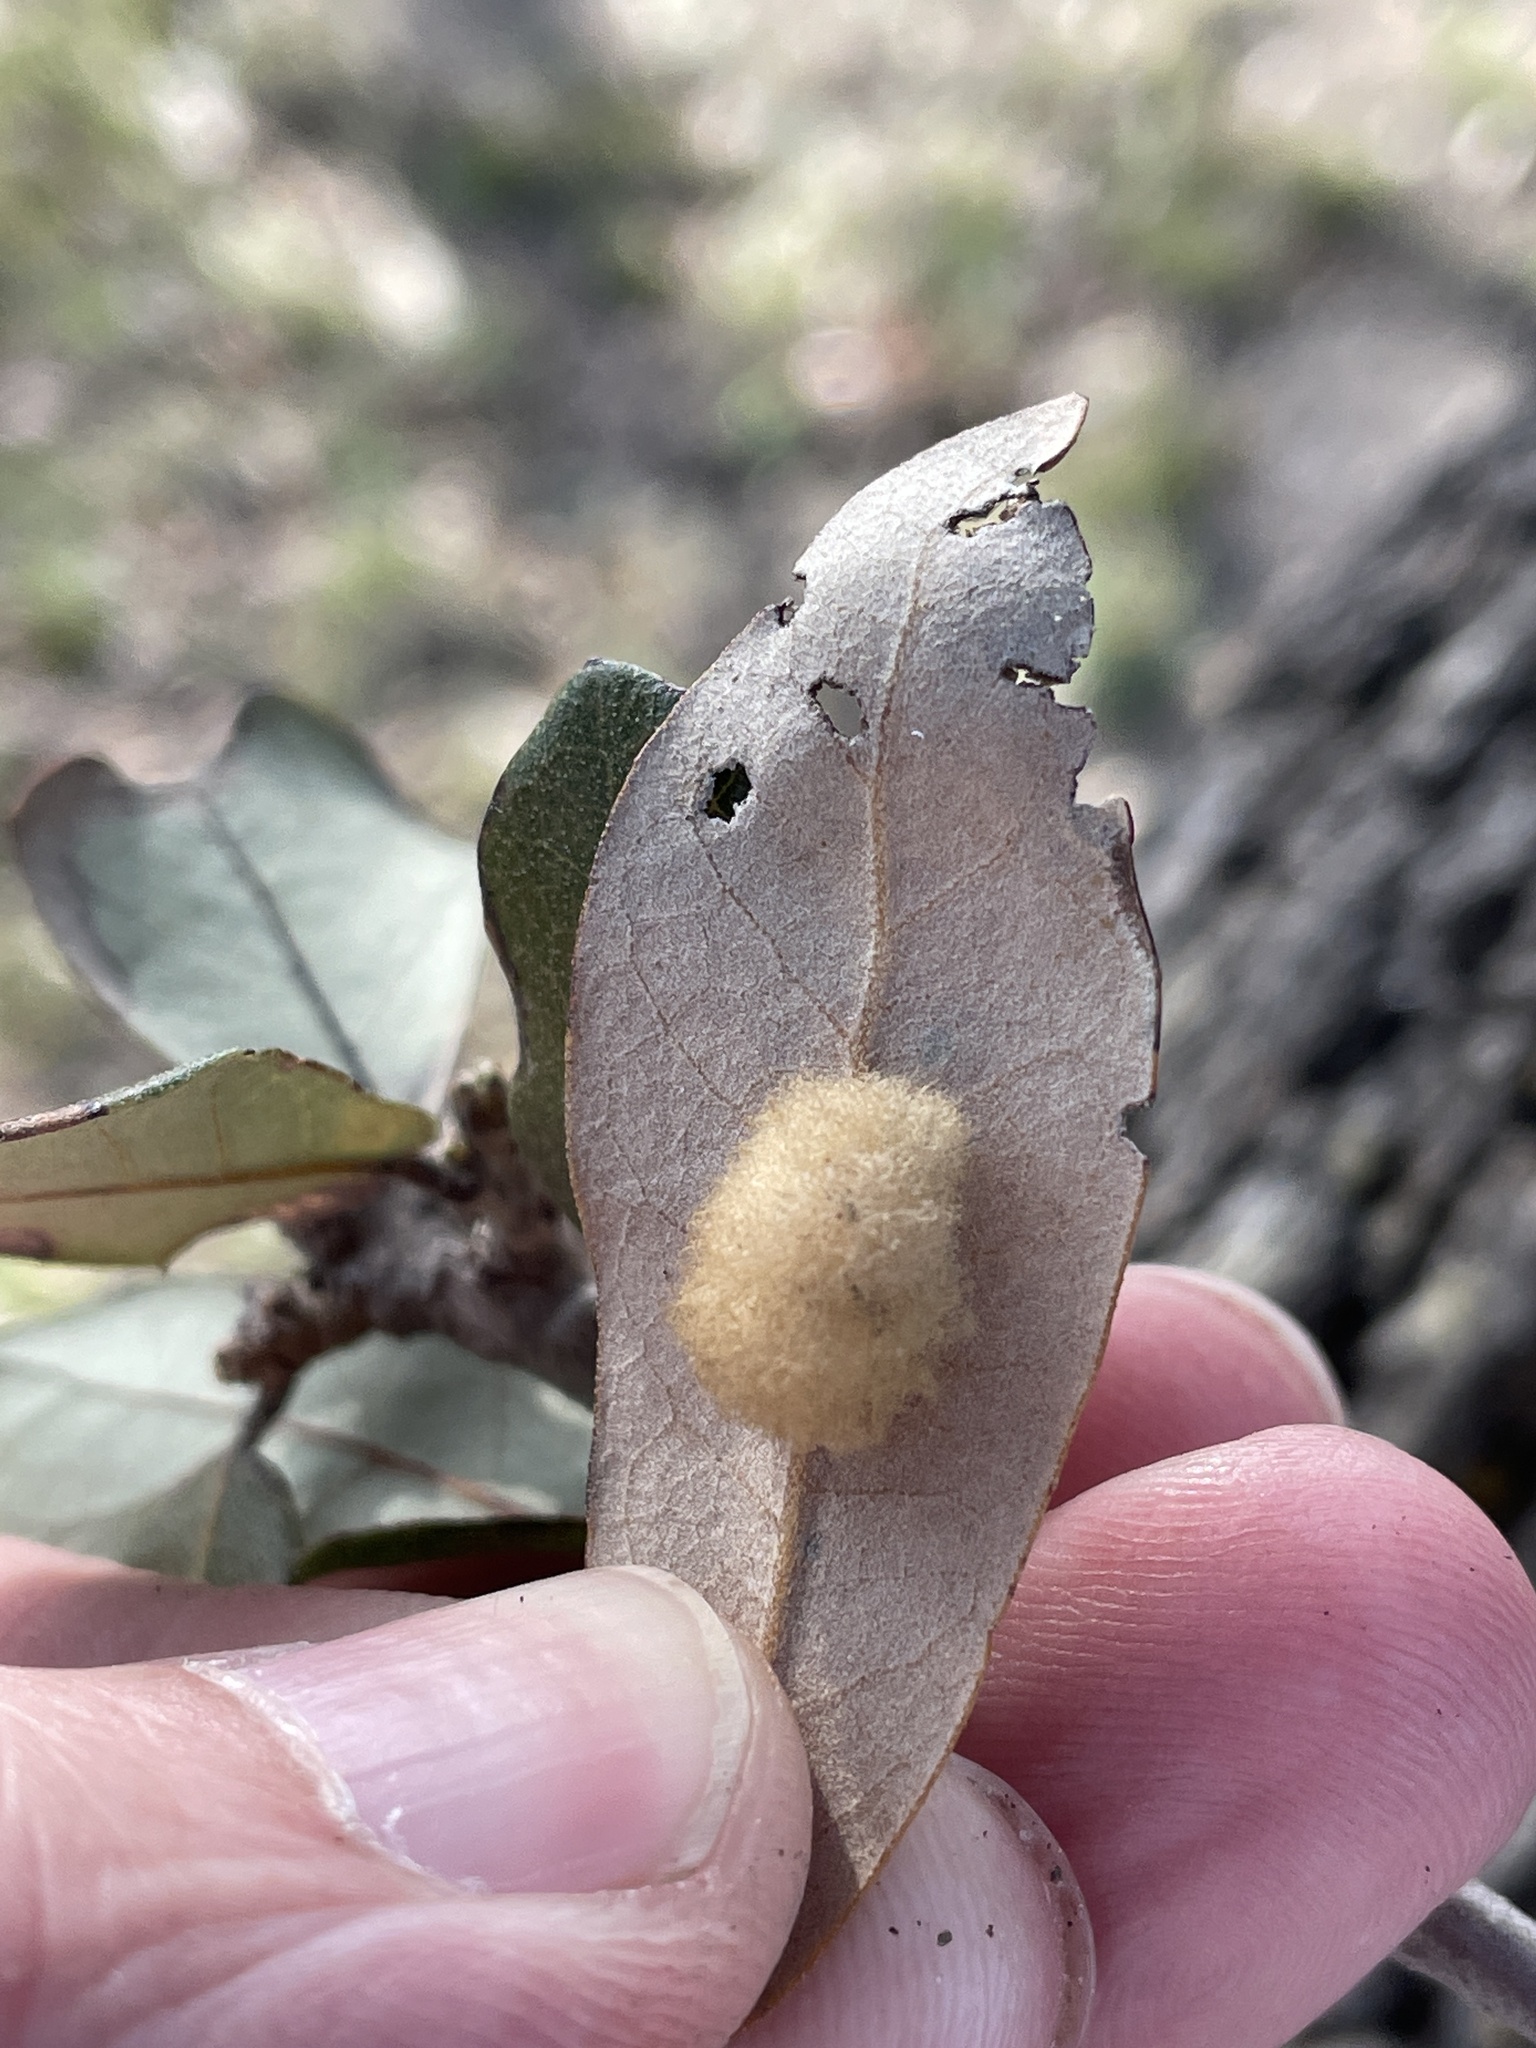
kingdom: Animalia
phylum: Arthropoda
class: Insecta
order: Hymenoptera
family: Cynipidae
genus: Andricus
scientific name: Andricus Druon quercuslanigerum
